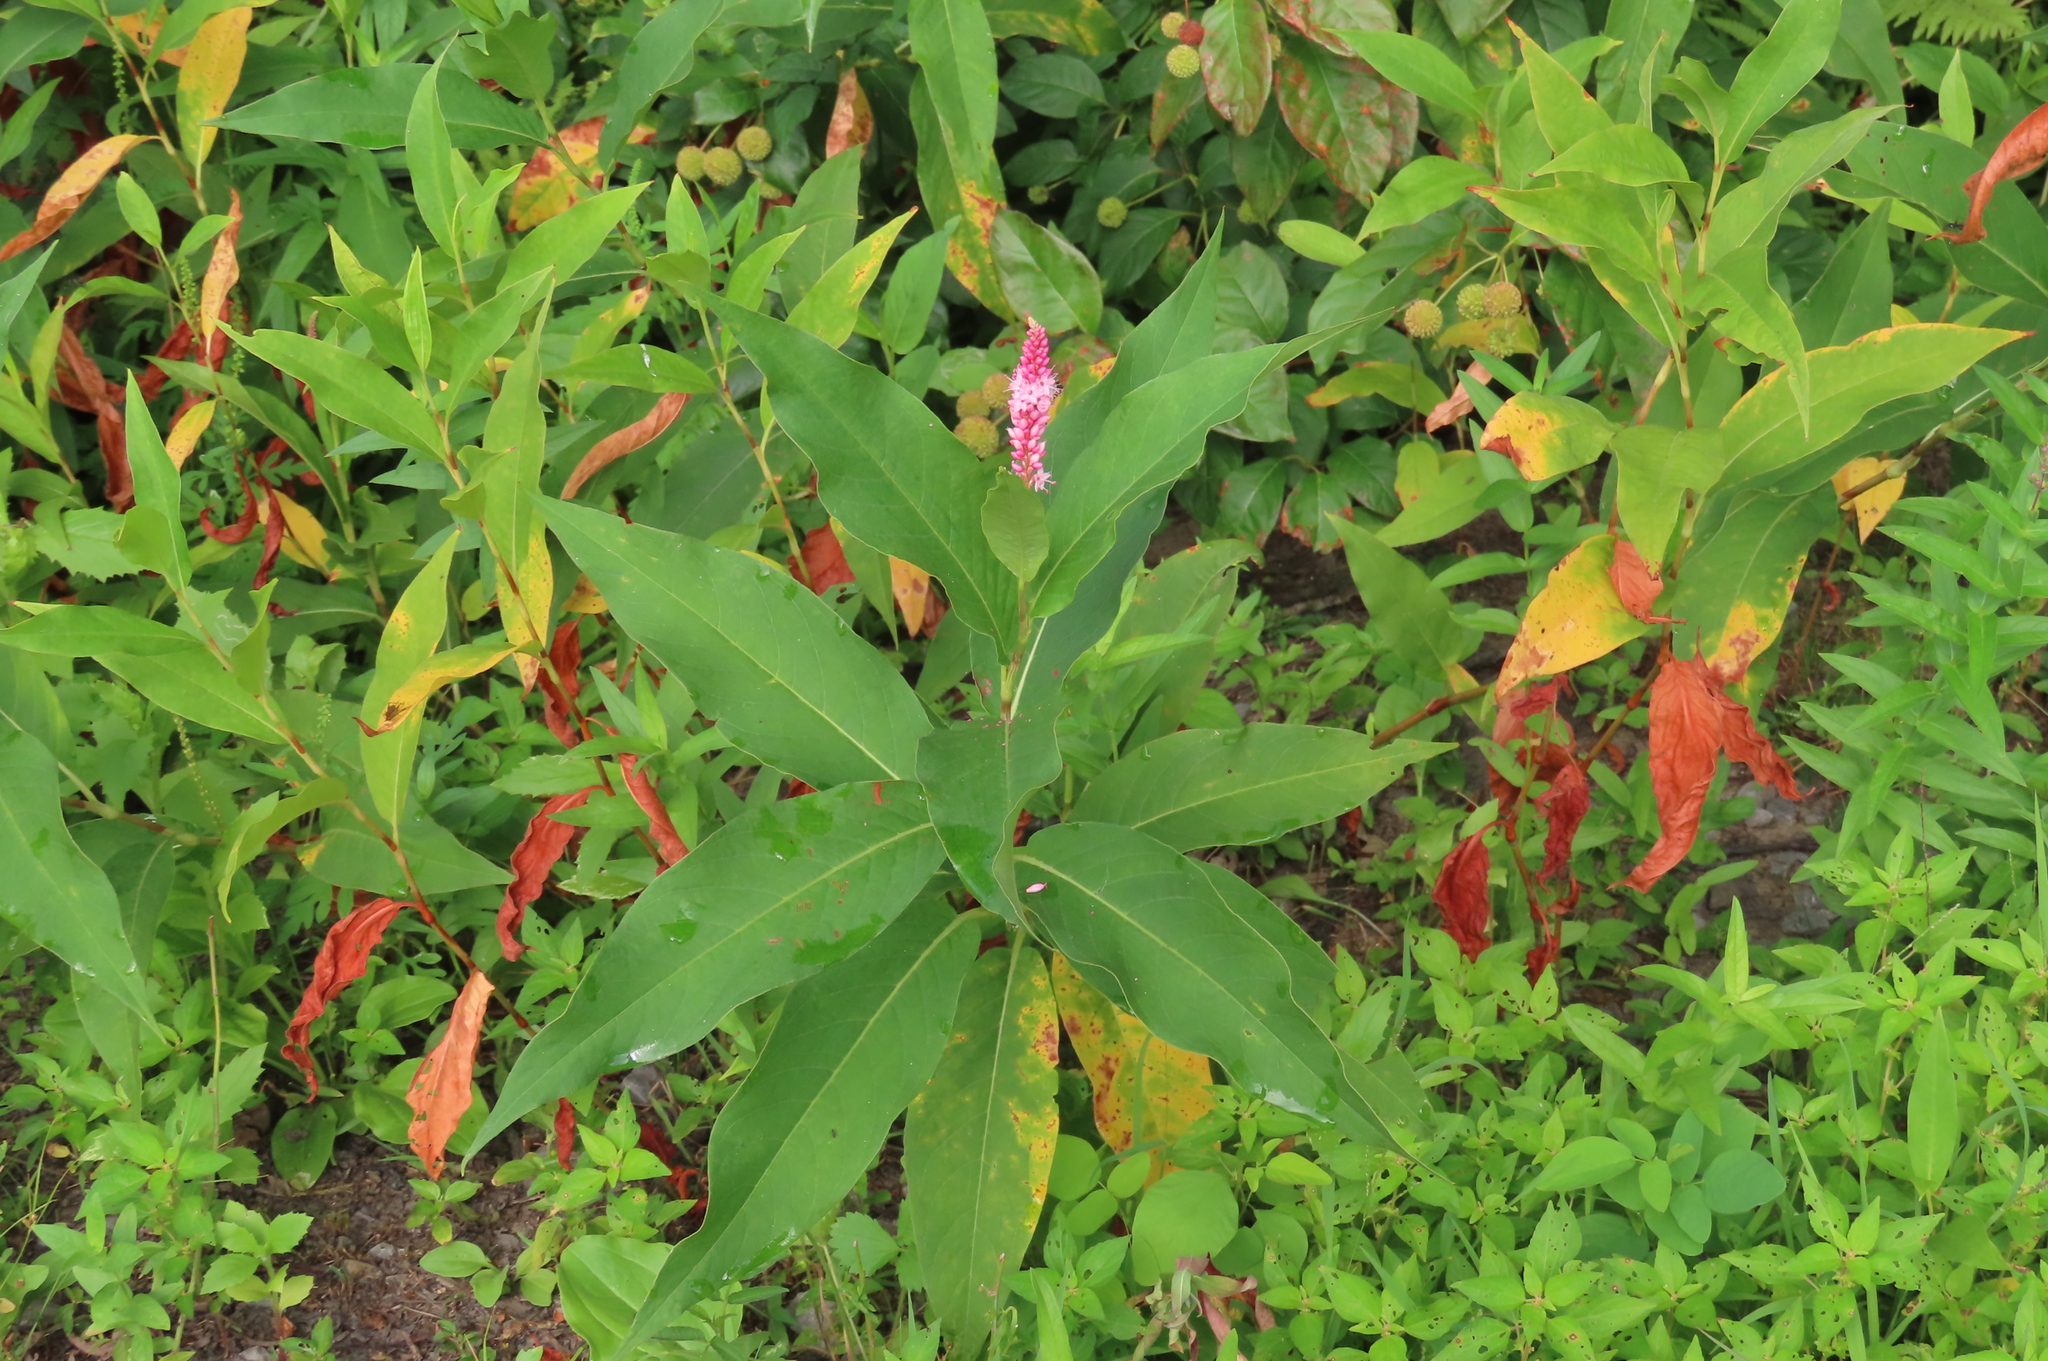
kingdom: Plantae
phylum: Tracheophyta
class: Magnoliopsida
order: Caryophyllales
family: Polygonaceae
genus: Persicaria
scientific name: Persicaria amphibia
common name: Amphibious bistort
